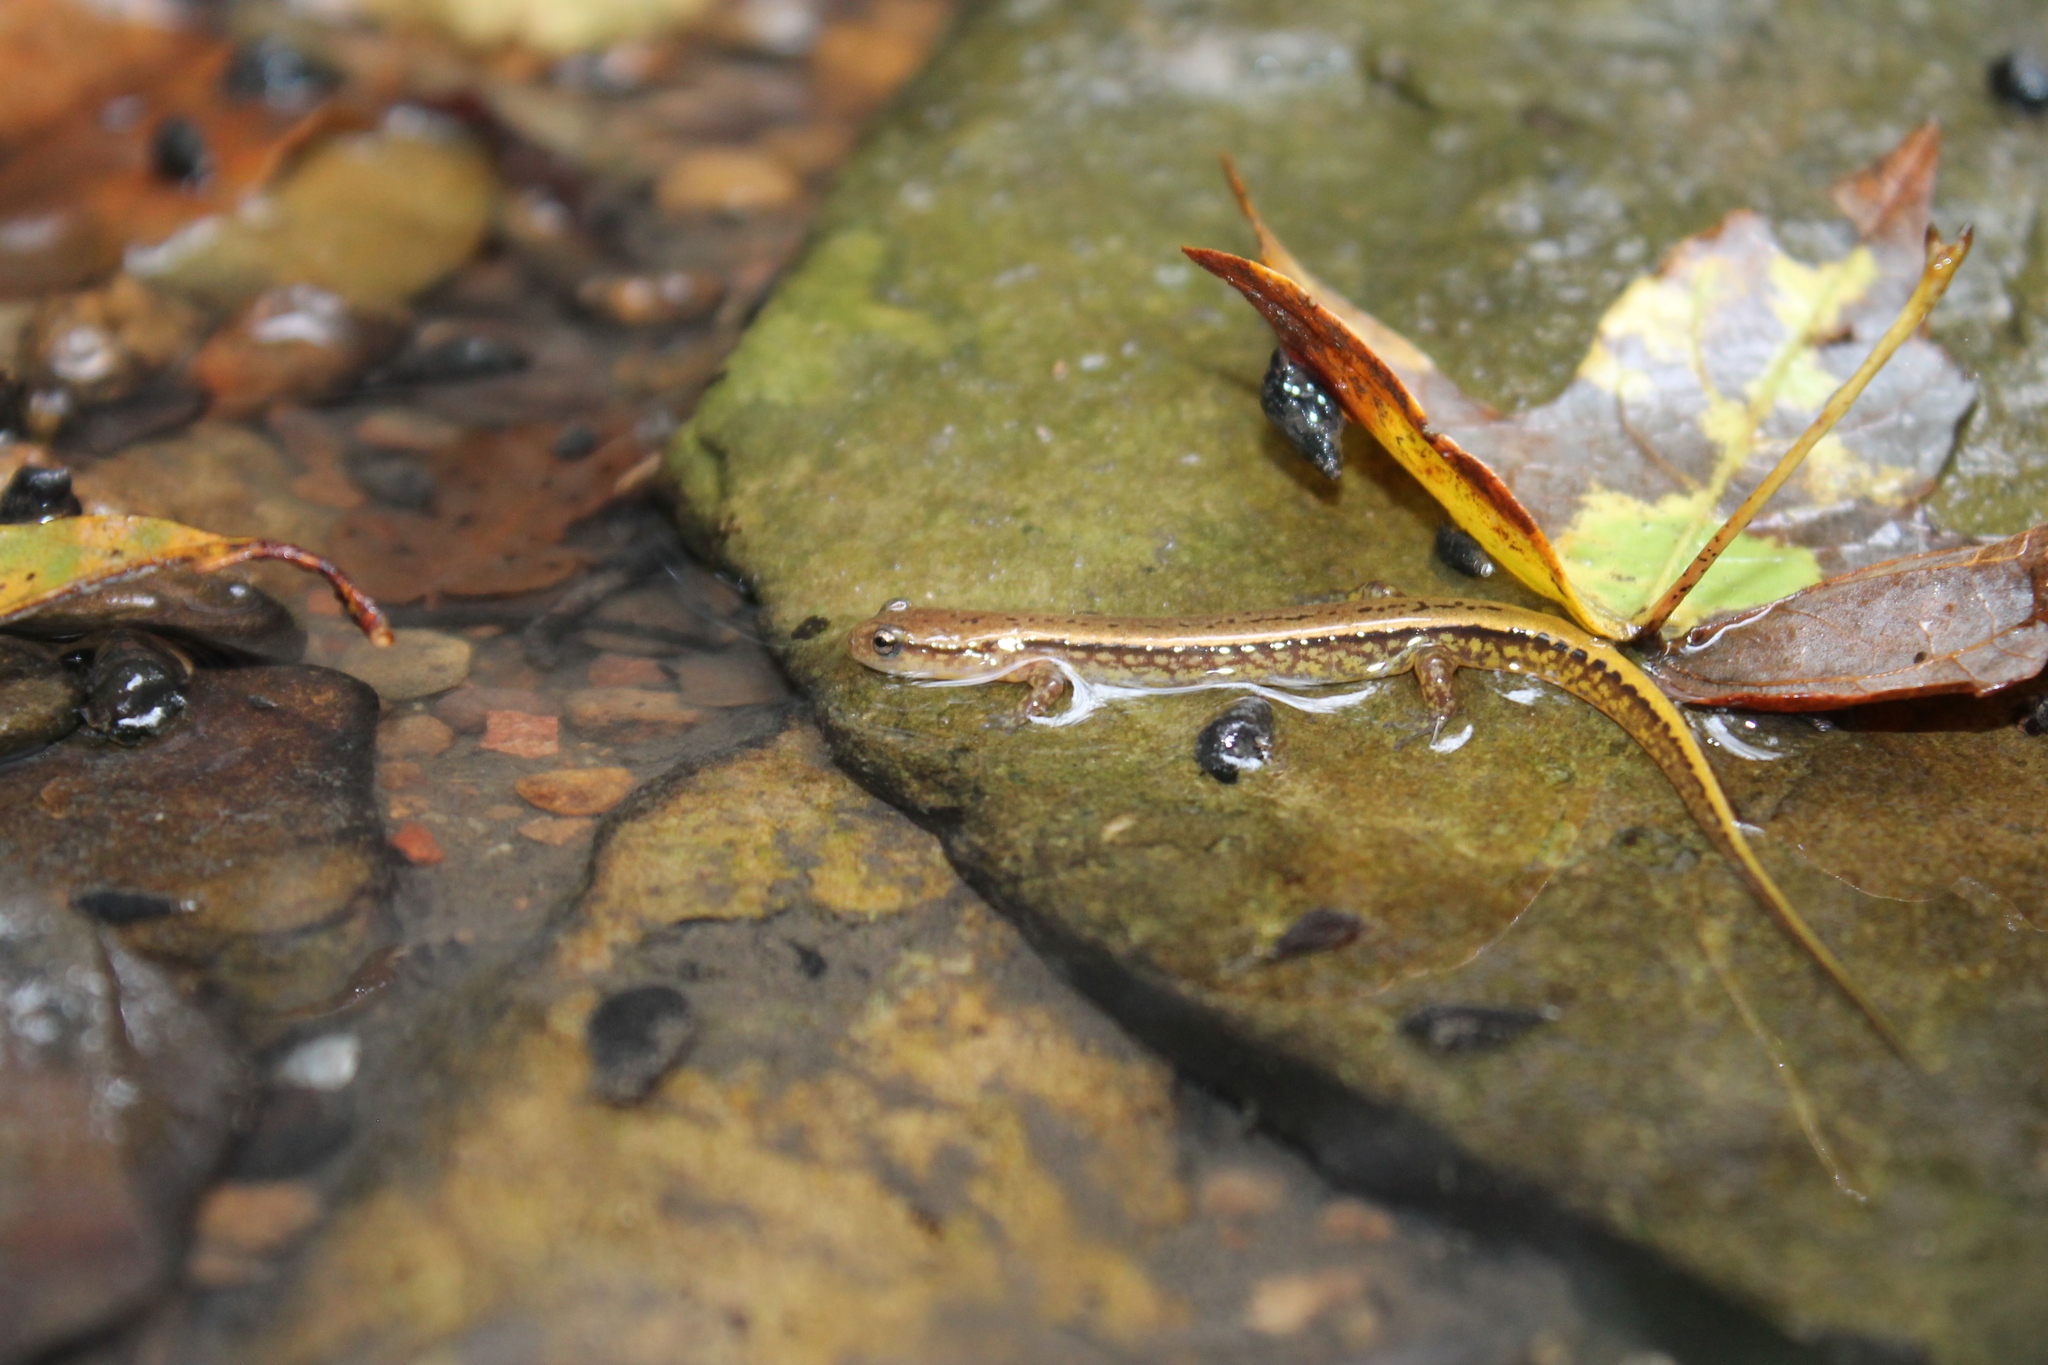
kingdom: Animalia
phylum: Chordata
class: Amphibia
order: Caudata
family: Plethodontidae
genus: Eurycea
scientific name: Eurycea cirrigera
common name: Southern two-lined salamander
